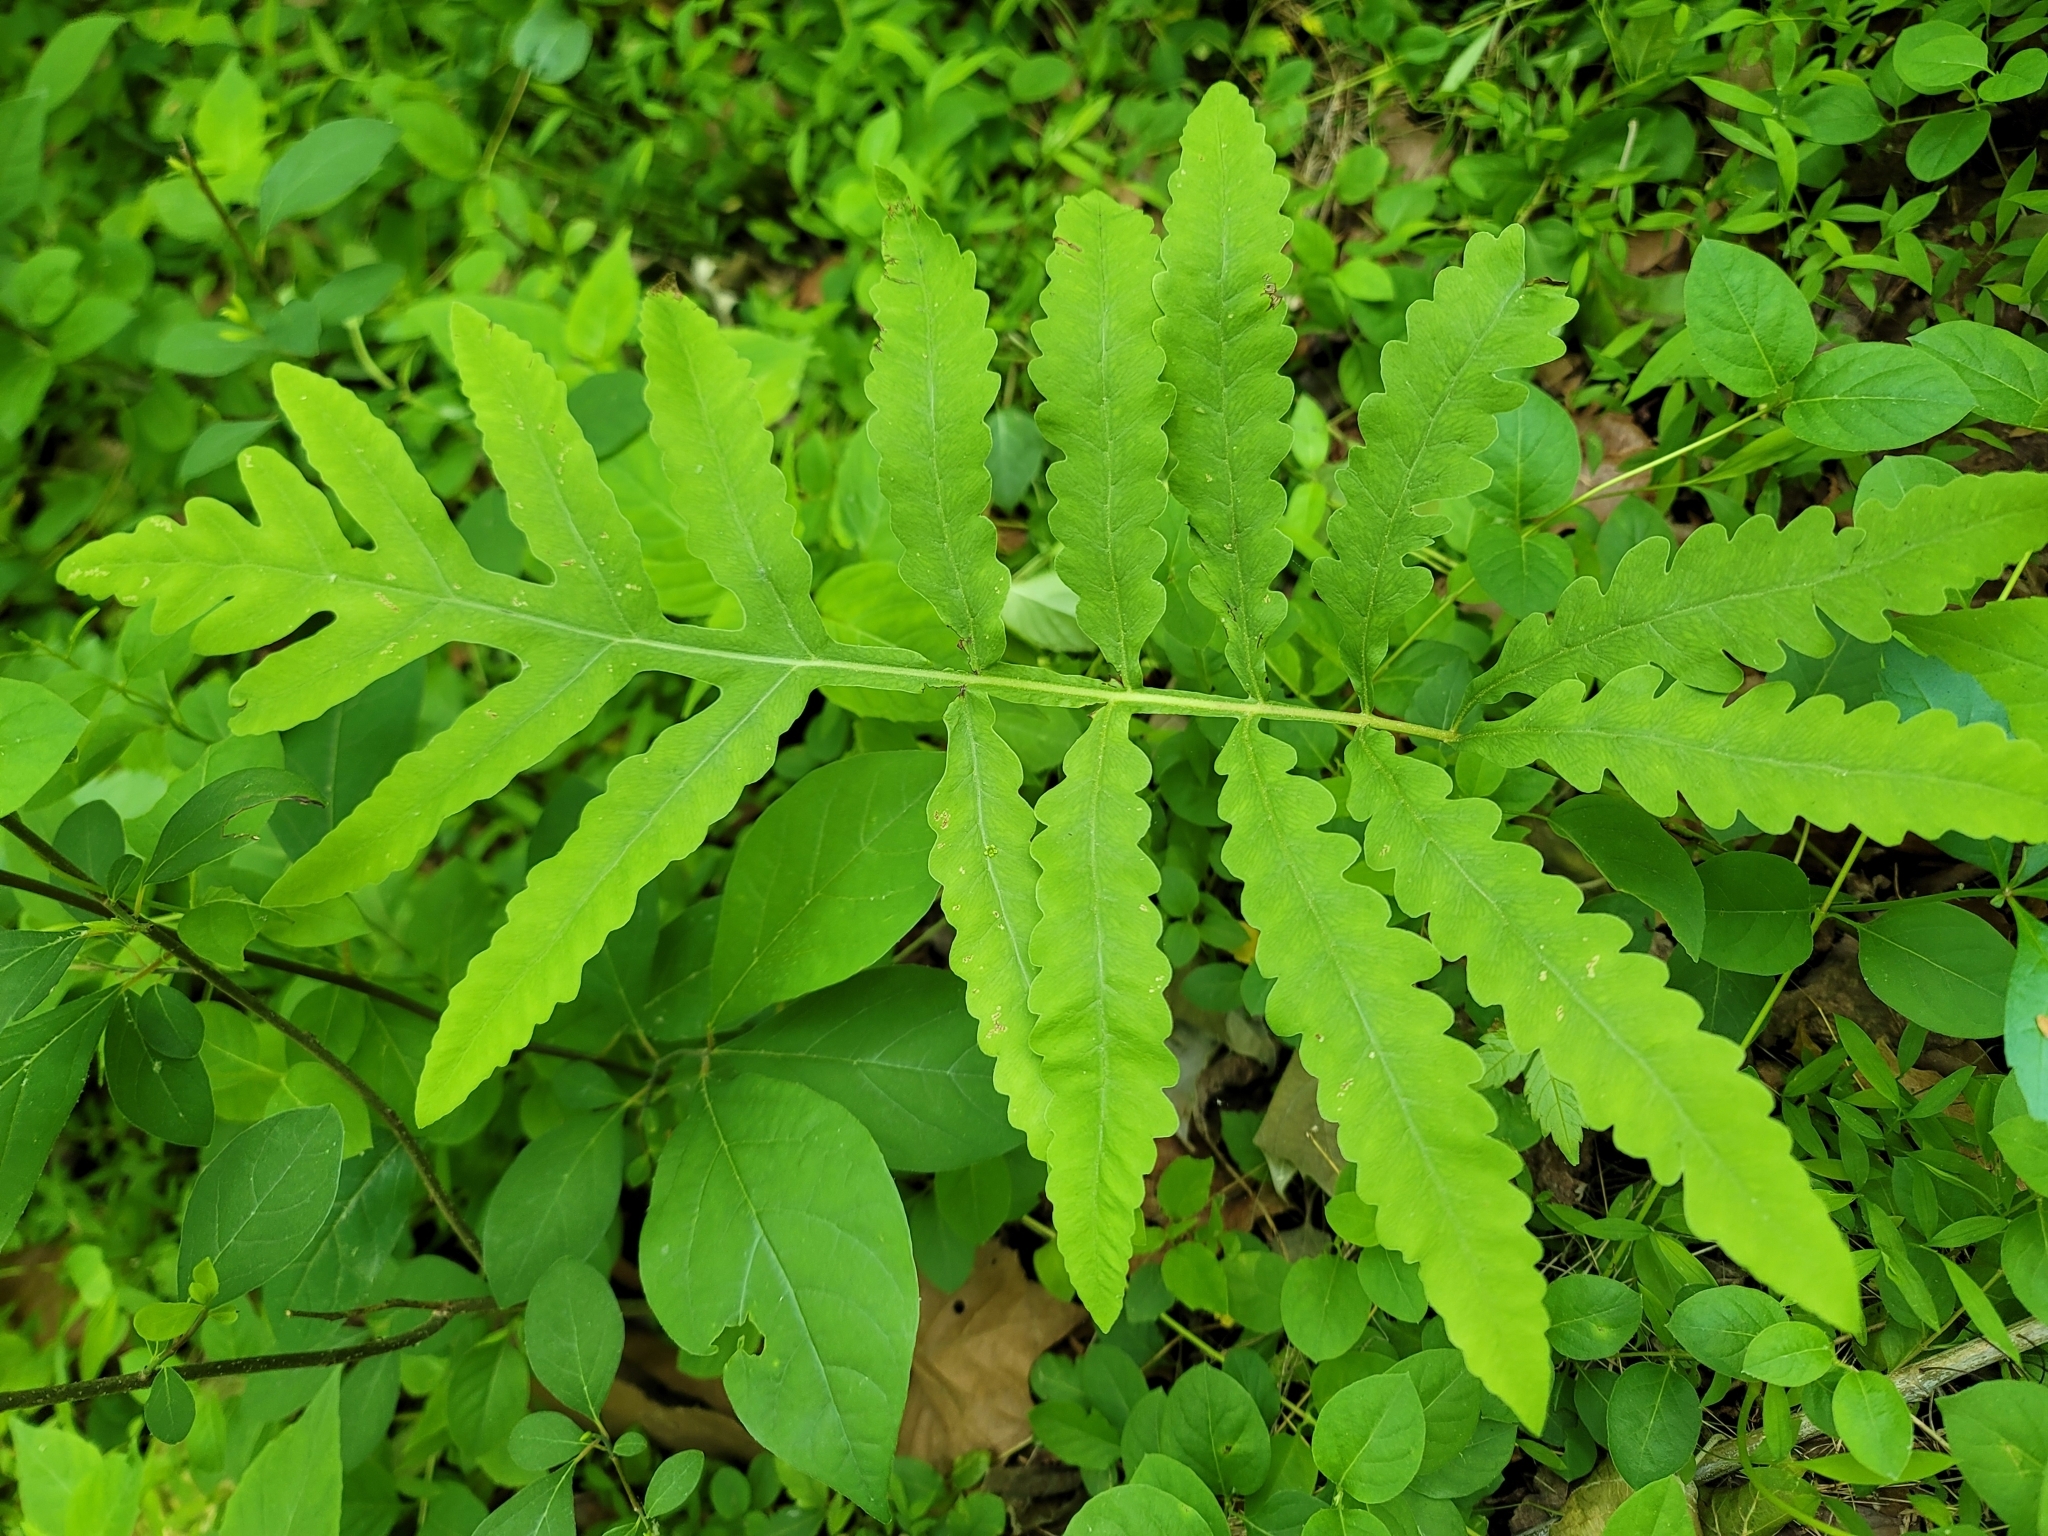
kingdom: Plantae
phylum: Tracheophyta
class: Polypodiopsida
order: Polypodiales
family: Onocleaceae
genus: Onoclea
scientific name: Onoclea sensibilis
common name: Sensitive fern
